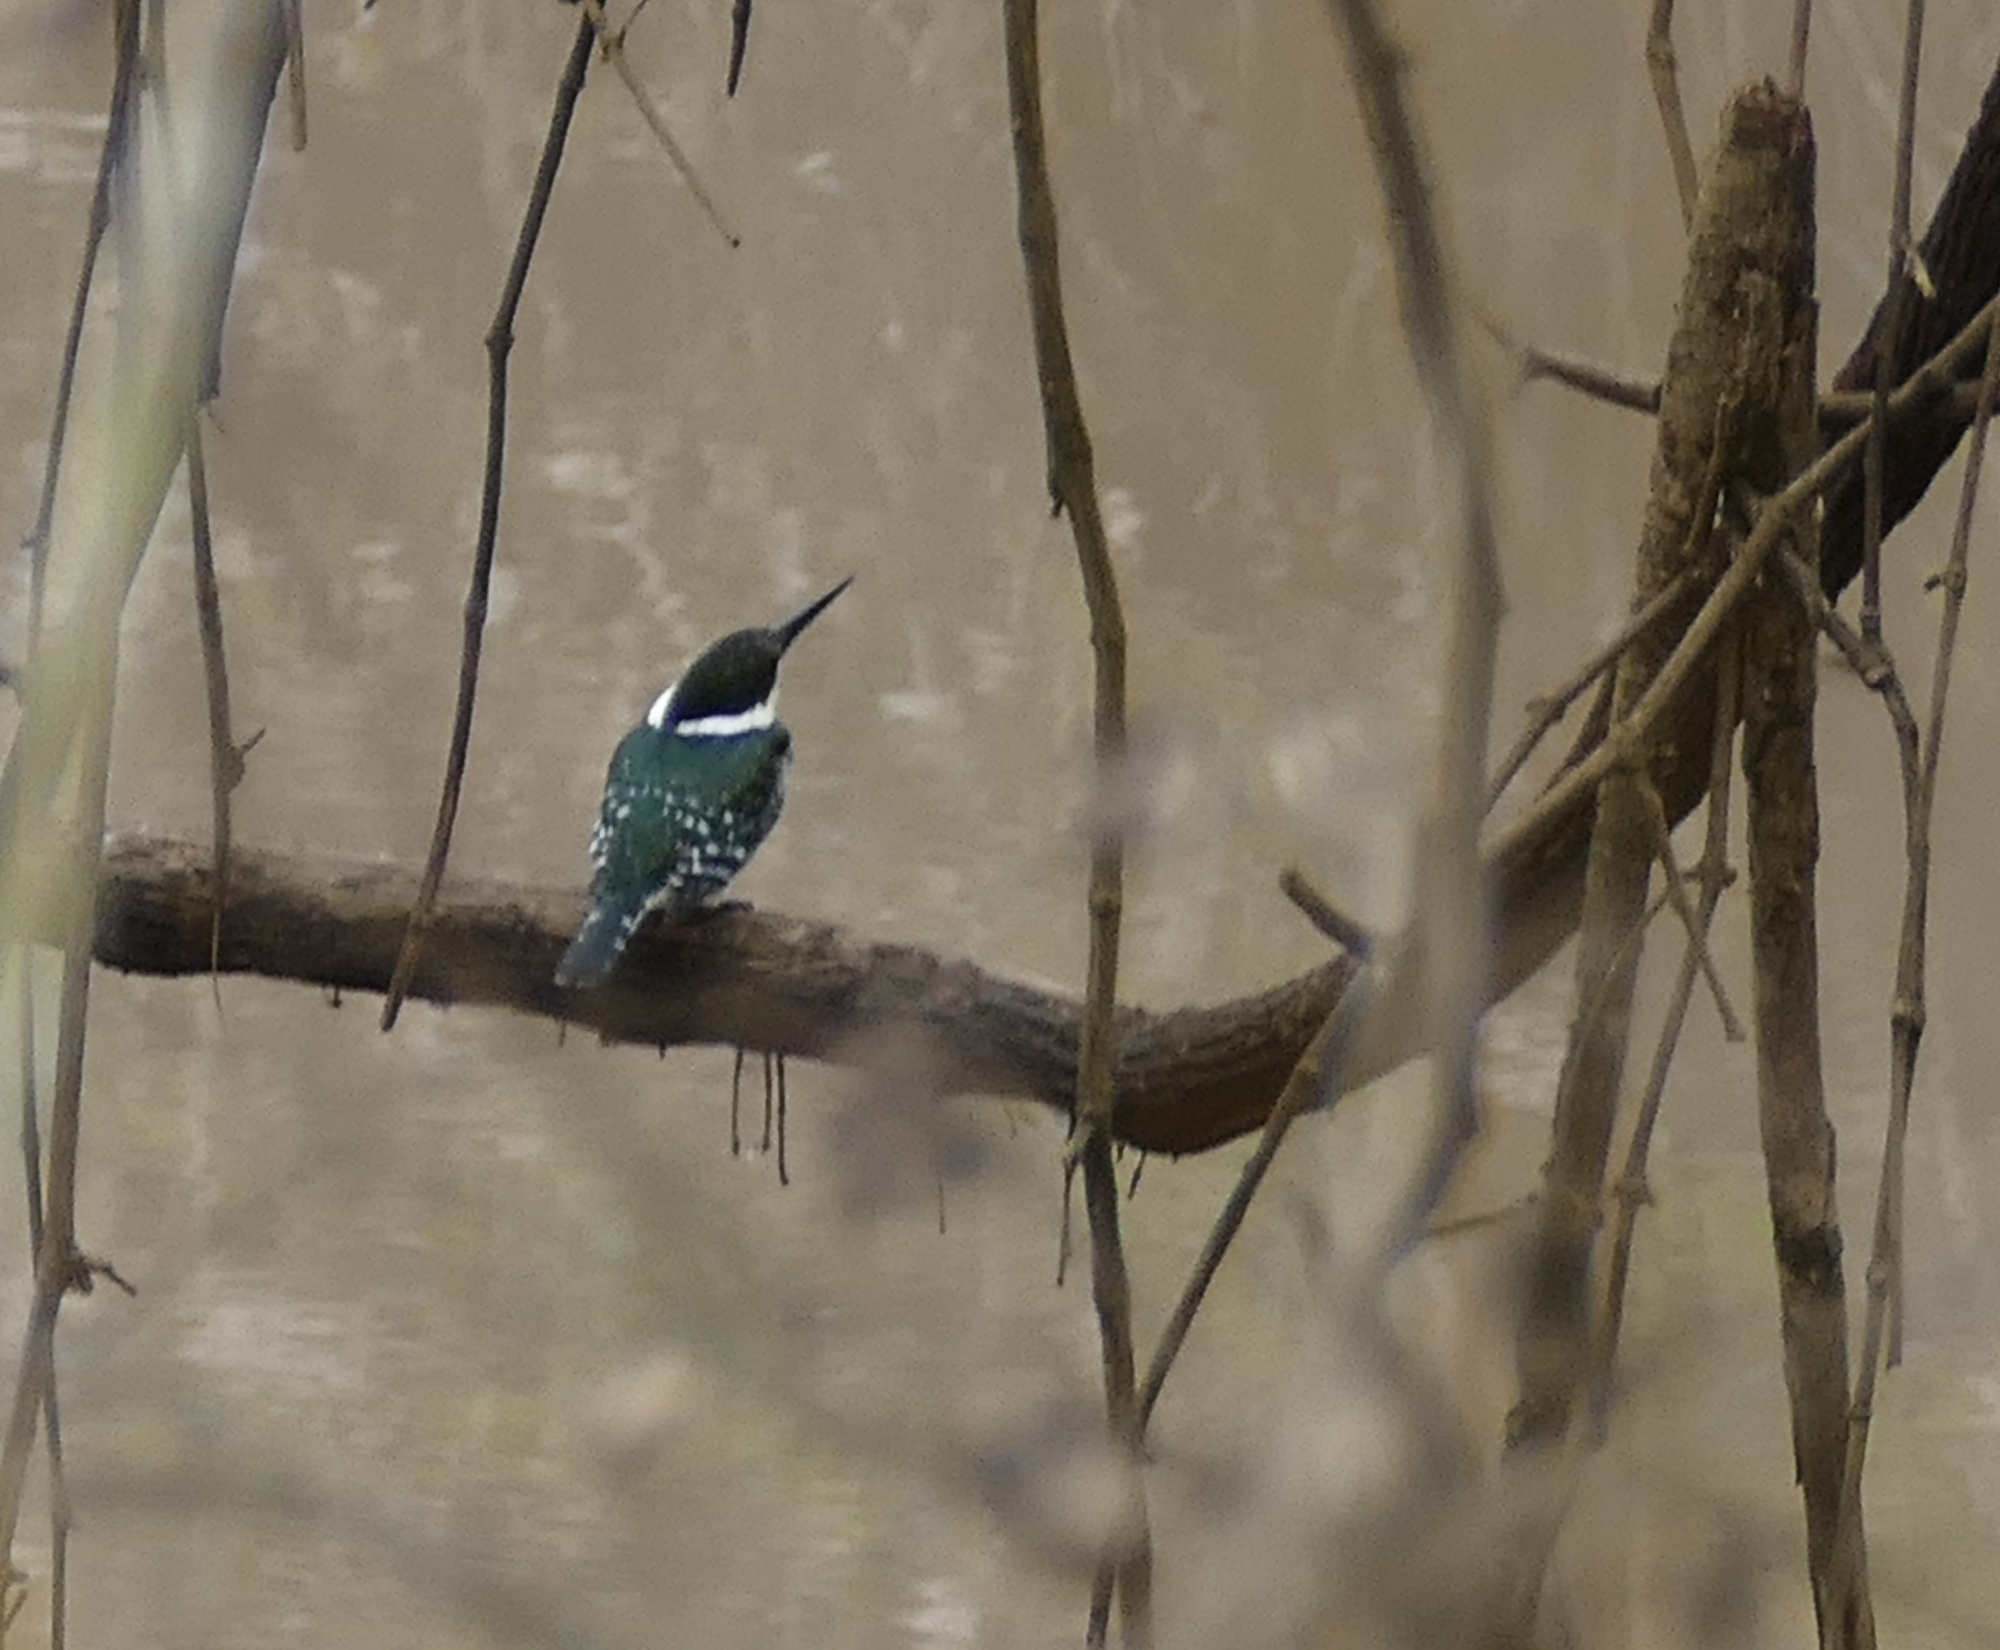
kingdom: Animalia
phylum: Chordata
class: Aves
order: Coraciiformes
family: Alcedinidae
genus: Chloroceryle
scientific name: Chloroceryle americana
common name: Green kingfisher
